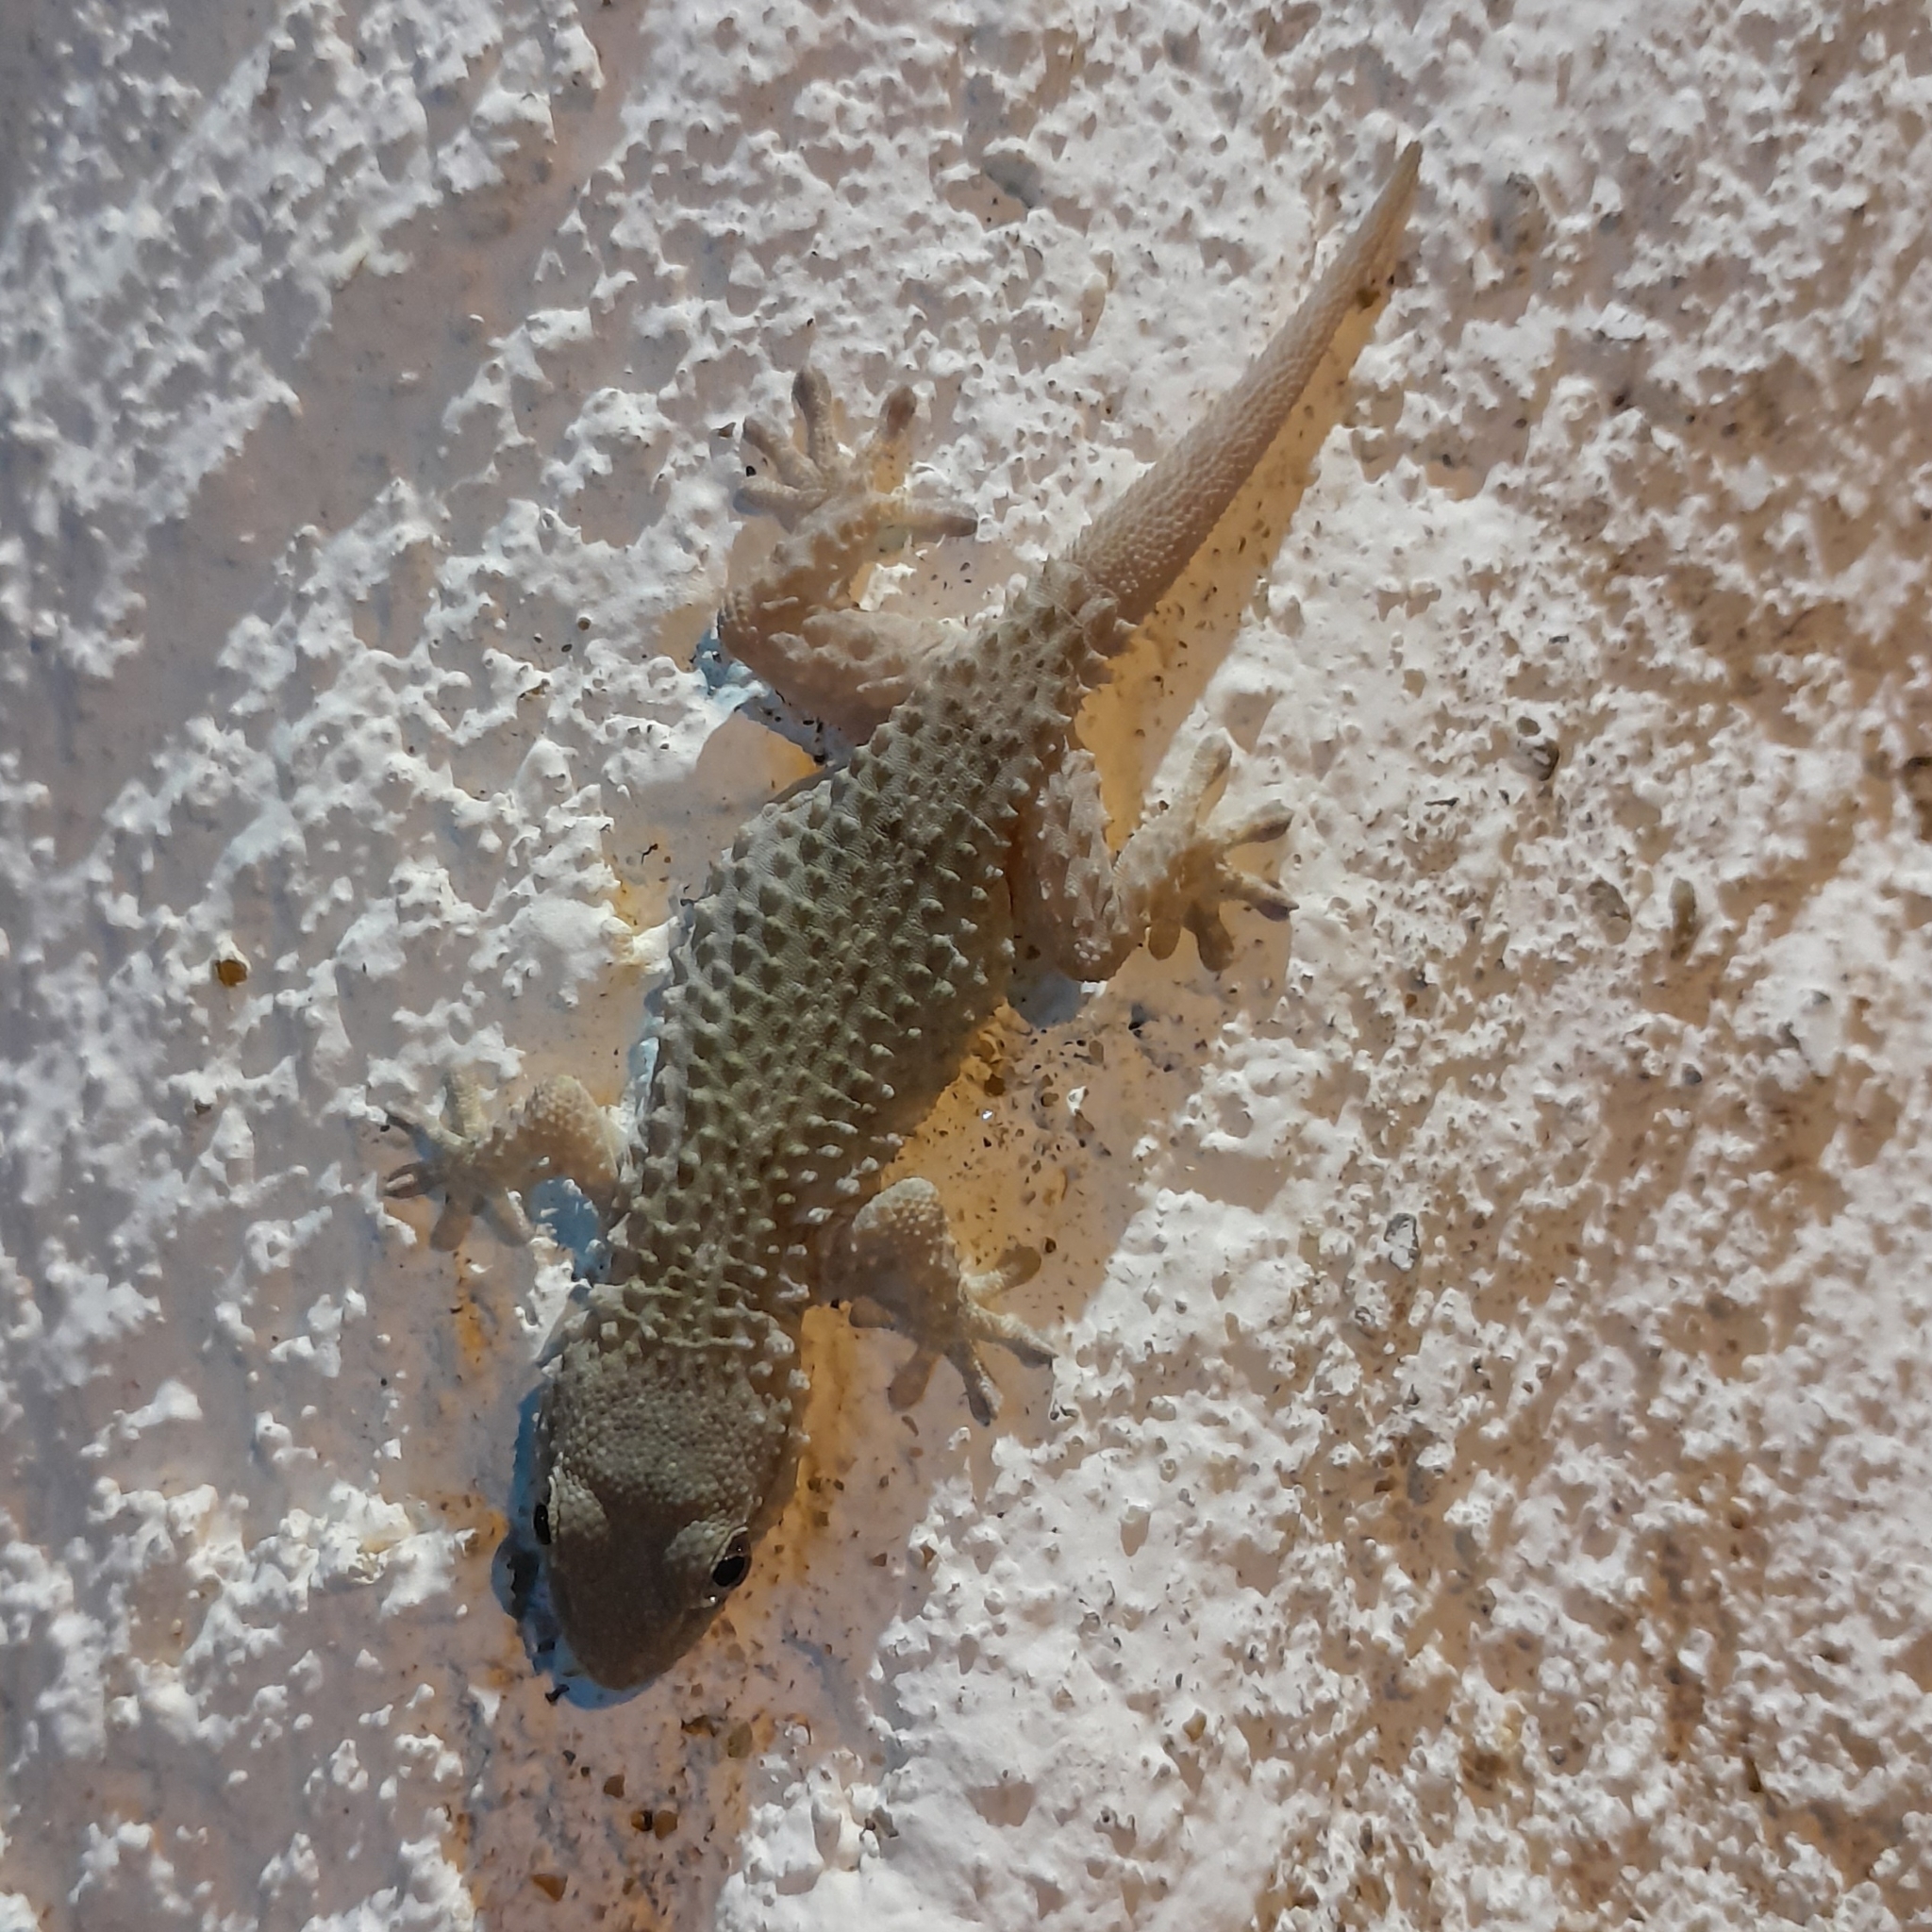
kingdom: Animalia
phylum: Chordata
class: Squamata
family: Phyllodactylidae
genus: Tarentola
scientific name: Tarentola mauritanica
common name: Moorish gecko
